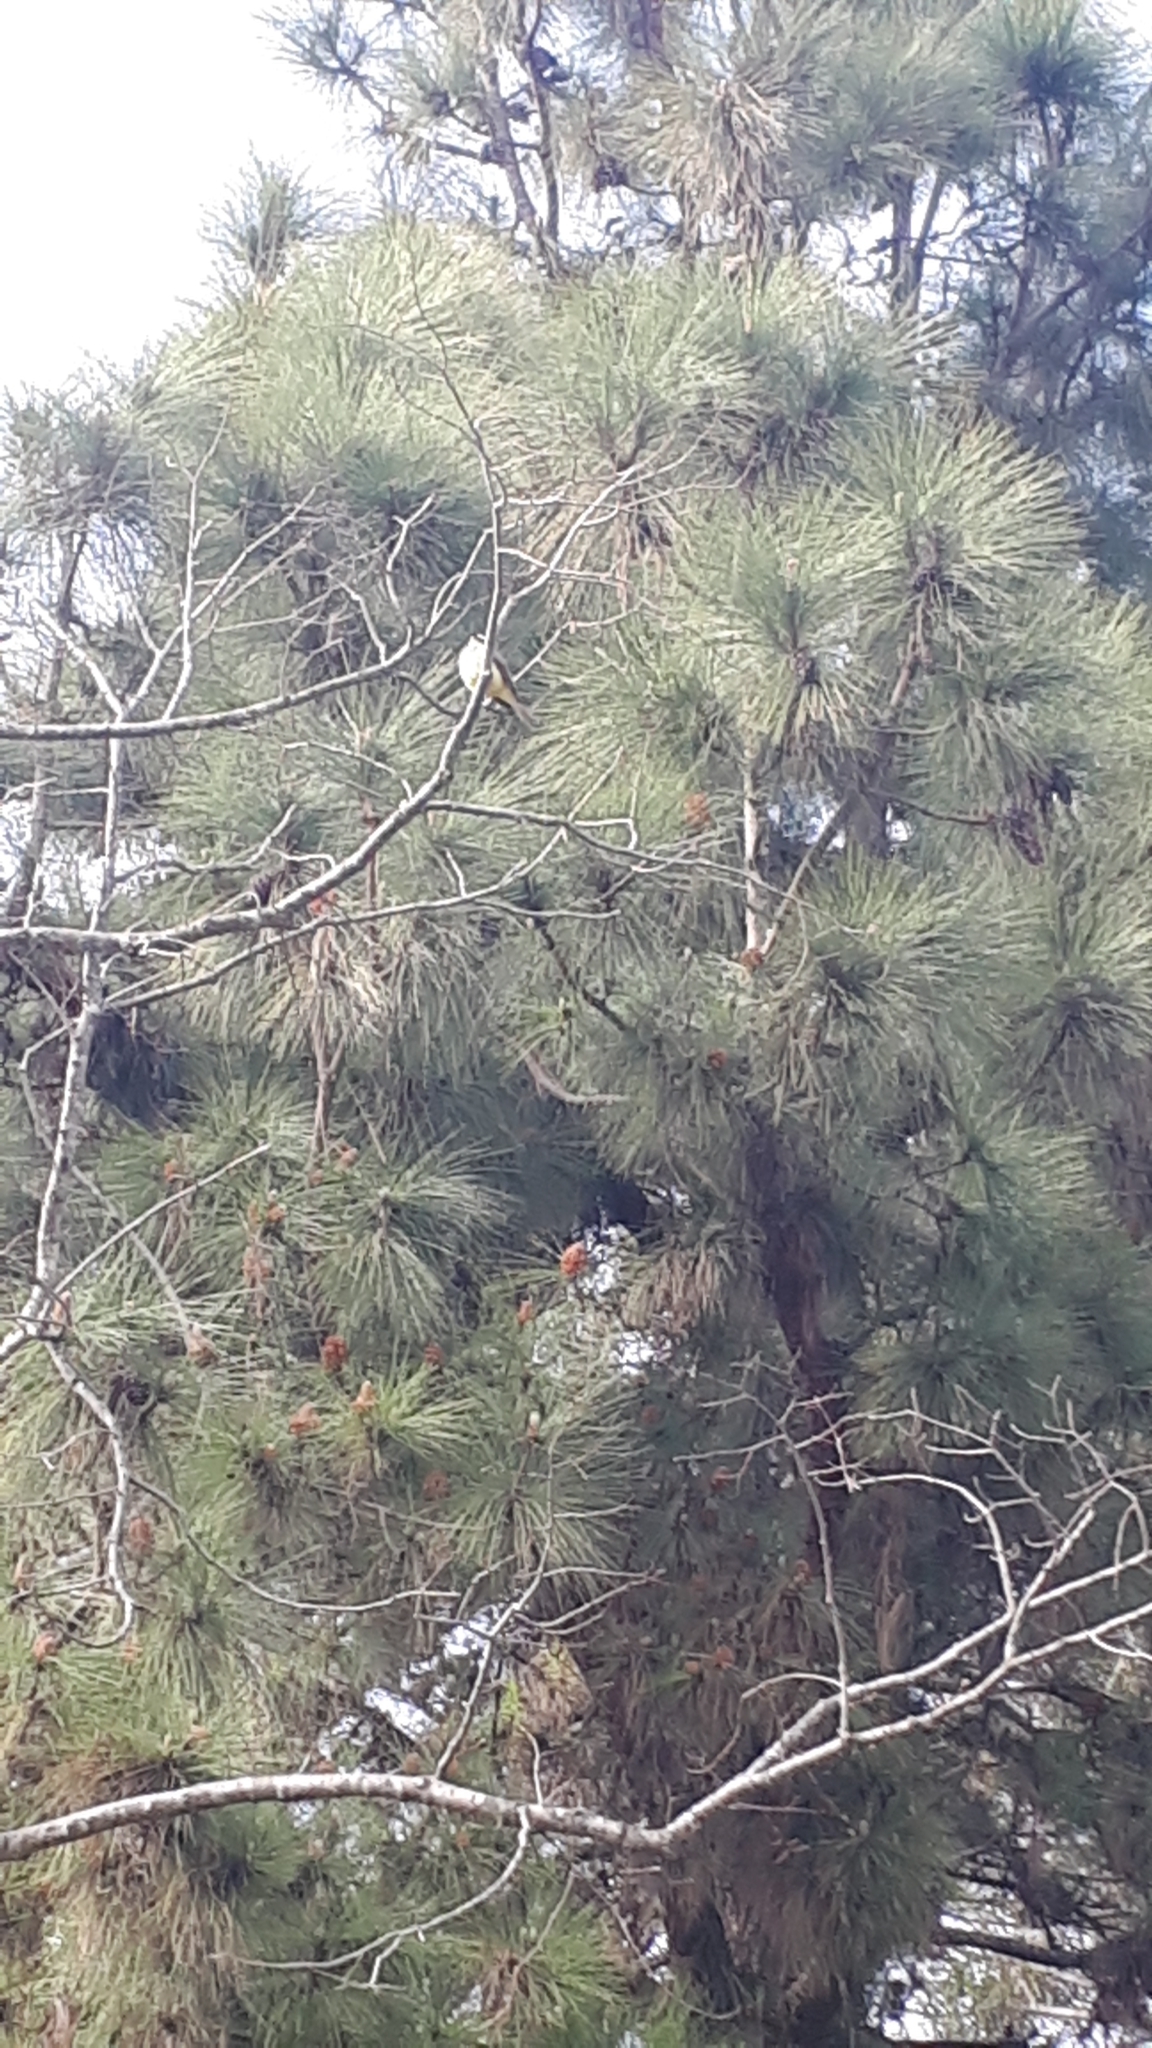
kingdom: Animalia
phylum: Chordata
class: Aves
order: Passeriformes
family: Tyrannidae
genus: Pitangus
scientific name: Pitangus sulphuratus
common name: Great kiskadee
